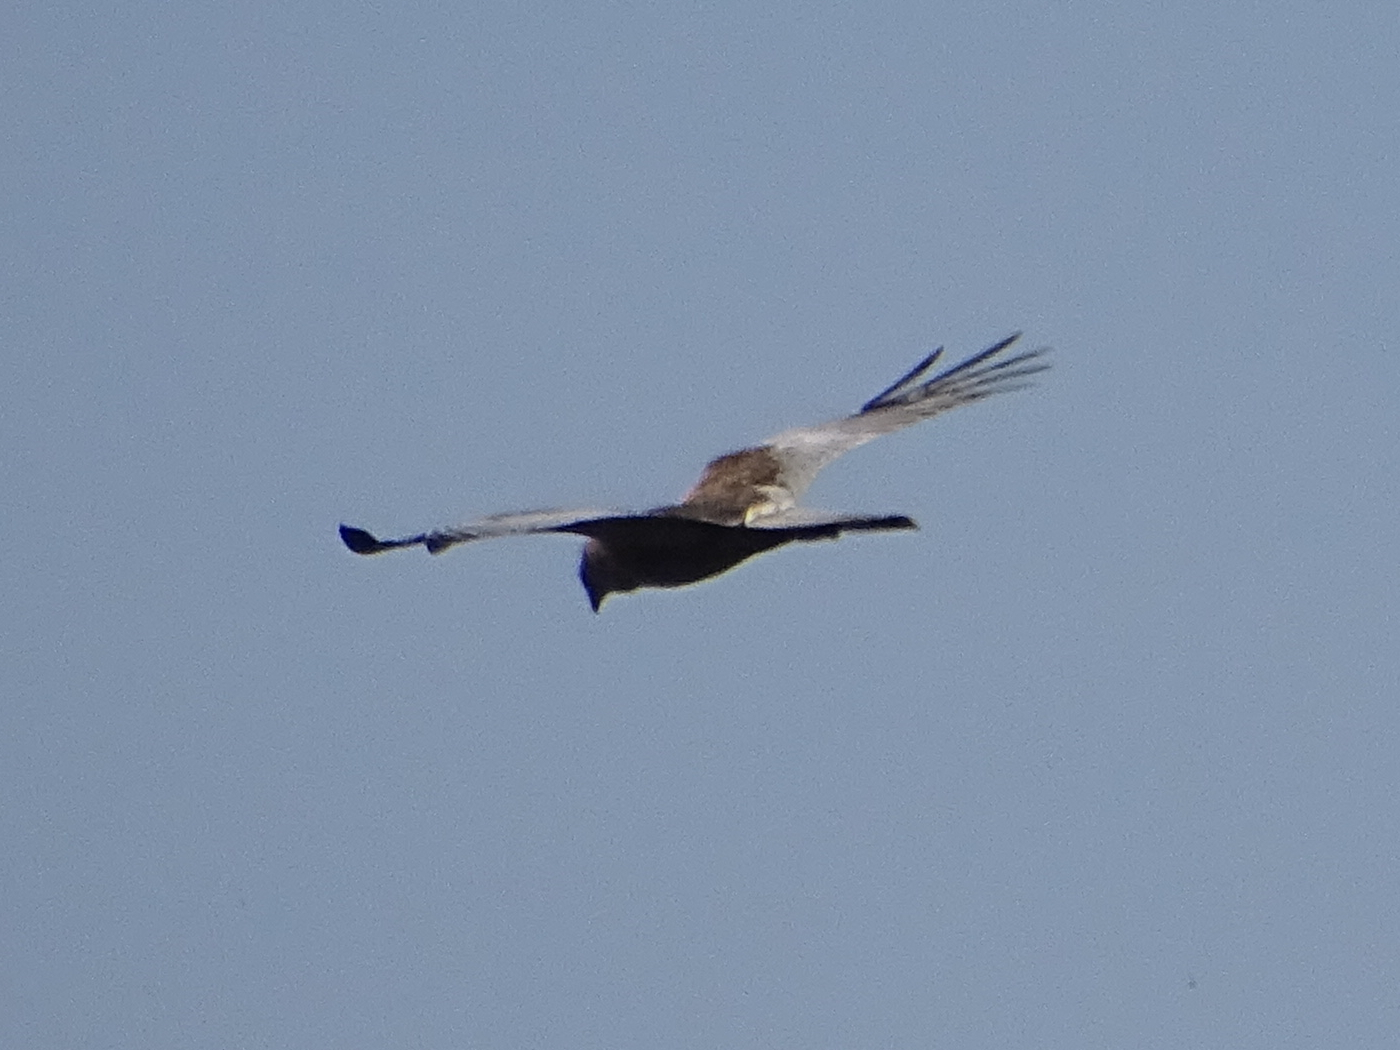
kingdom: Animalia
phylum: Chordata
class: Aves
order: Accipitriformes
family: Accipitridae
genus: Circus
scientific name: Circus aeruginosus
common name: Western marsh harrier
